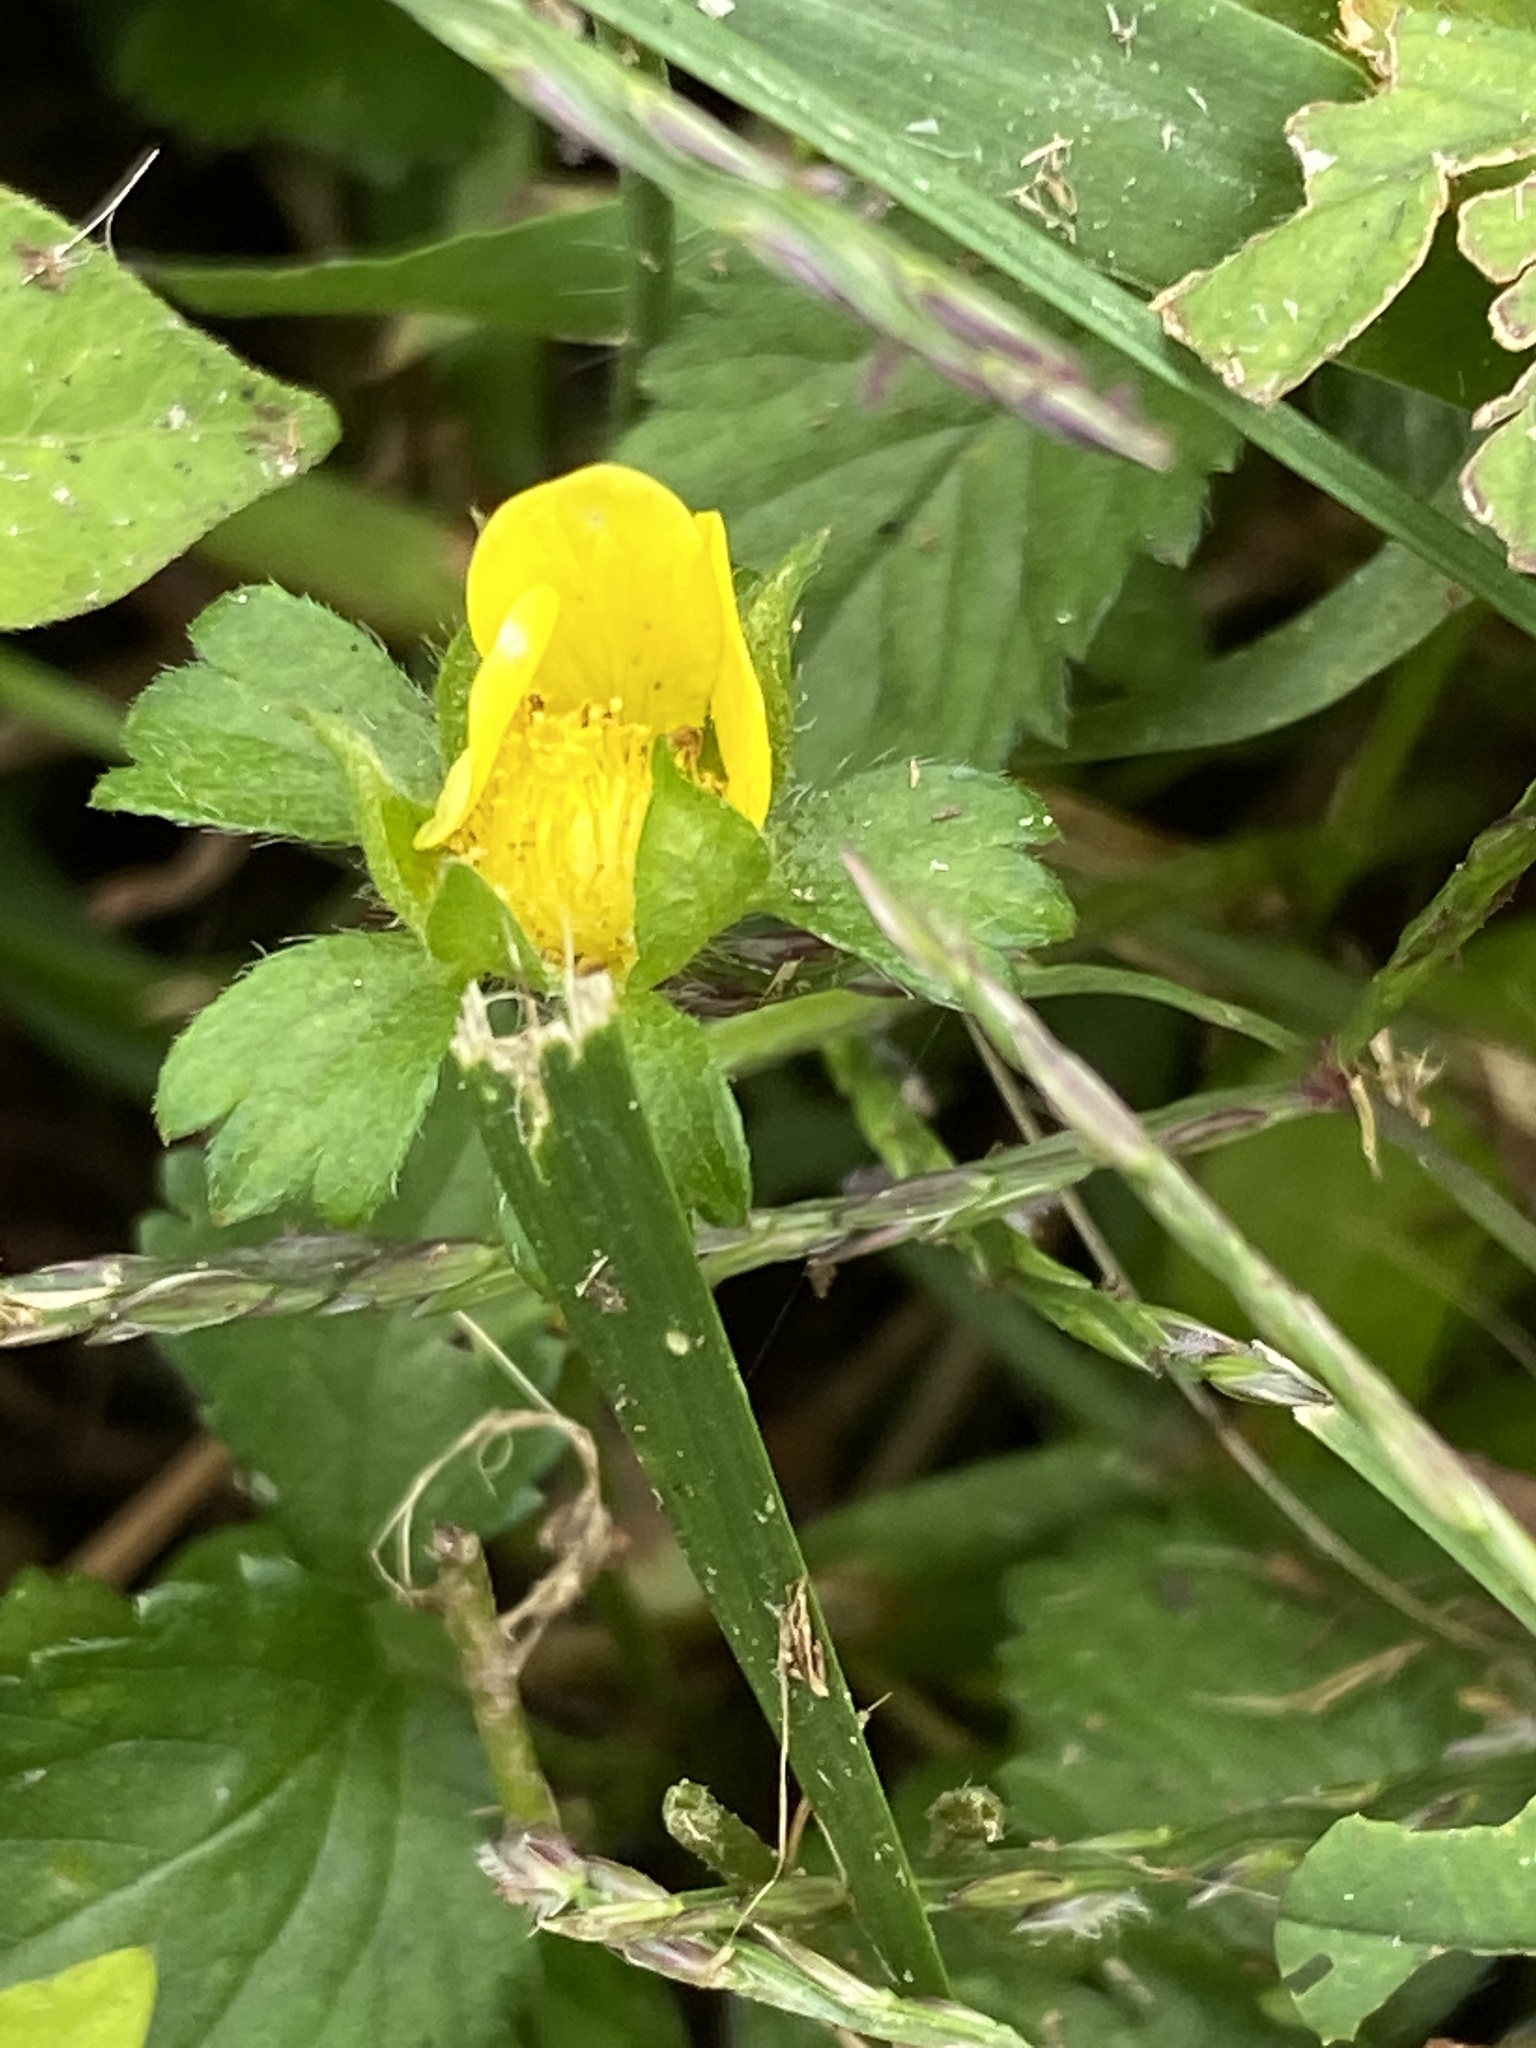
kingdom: Plantae
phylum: Tracheophyta
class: Magnoliopsida
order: Rosales
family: Rosaceae
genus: Potentilla
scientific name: Potentilla indica
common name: Yellow-flowered strawberry
